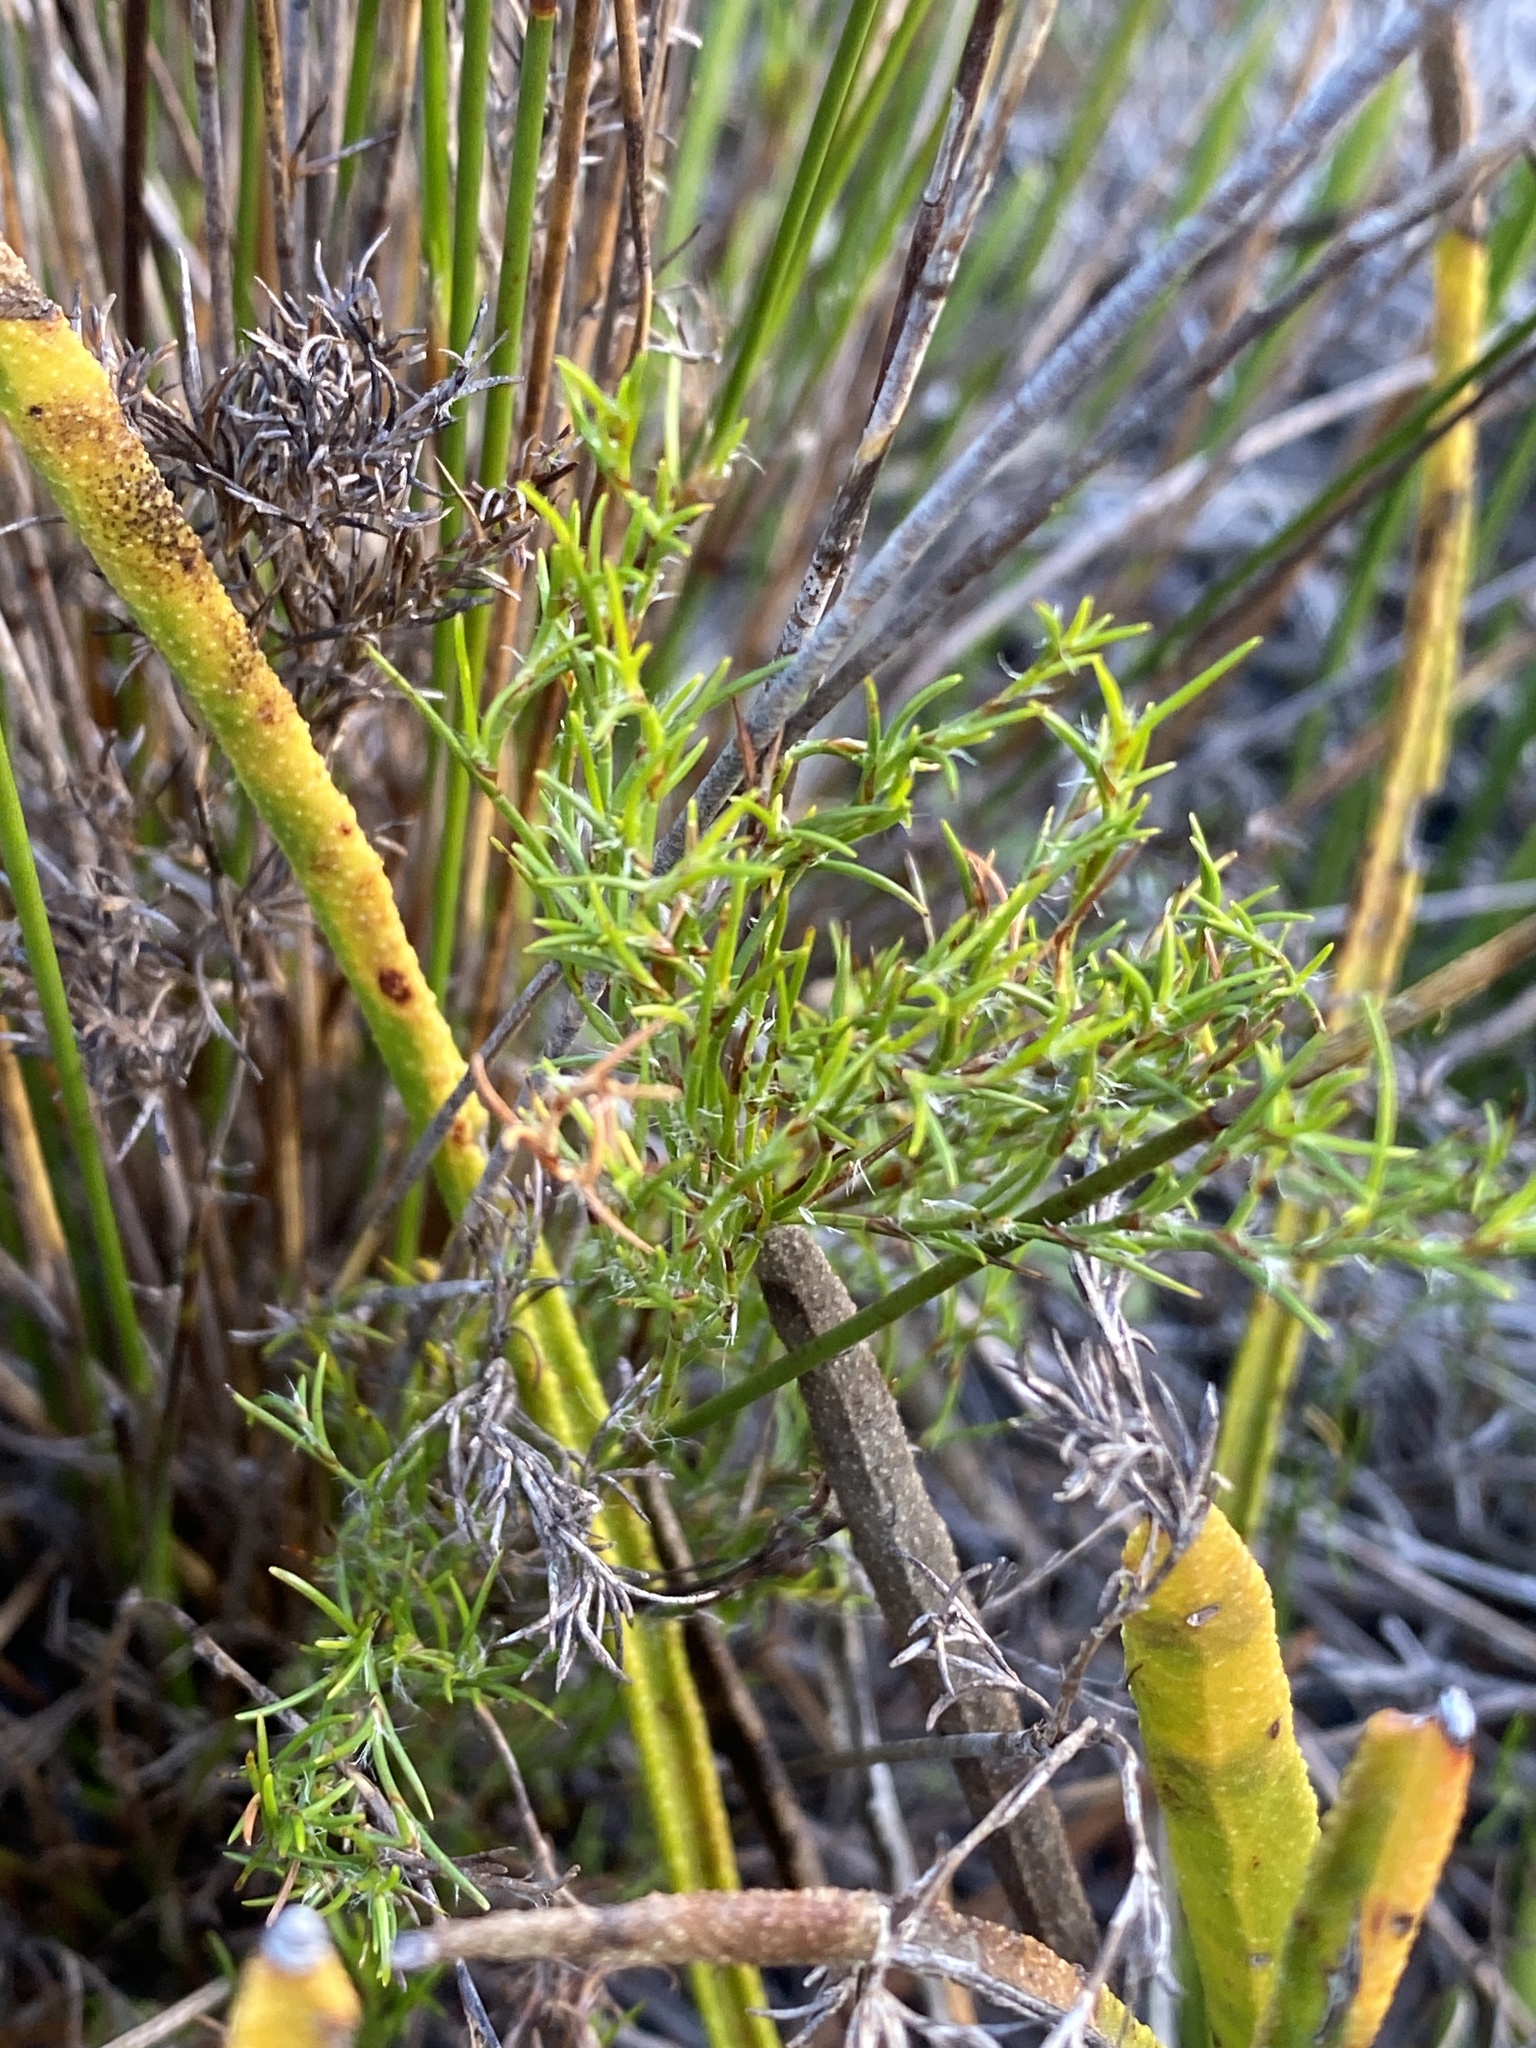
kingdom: Plantae
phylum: Tracheophyta
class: Liliopsida
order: Poales
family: Restionaceae
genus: Thamnochortus
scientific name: Thamnochortus lucens
